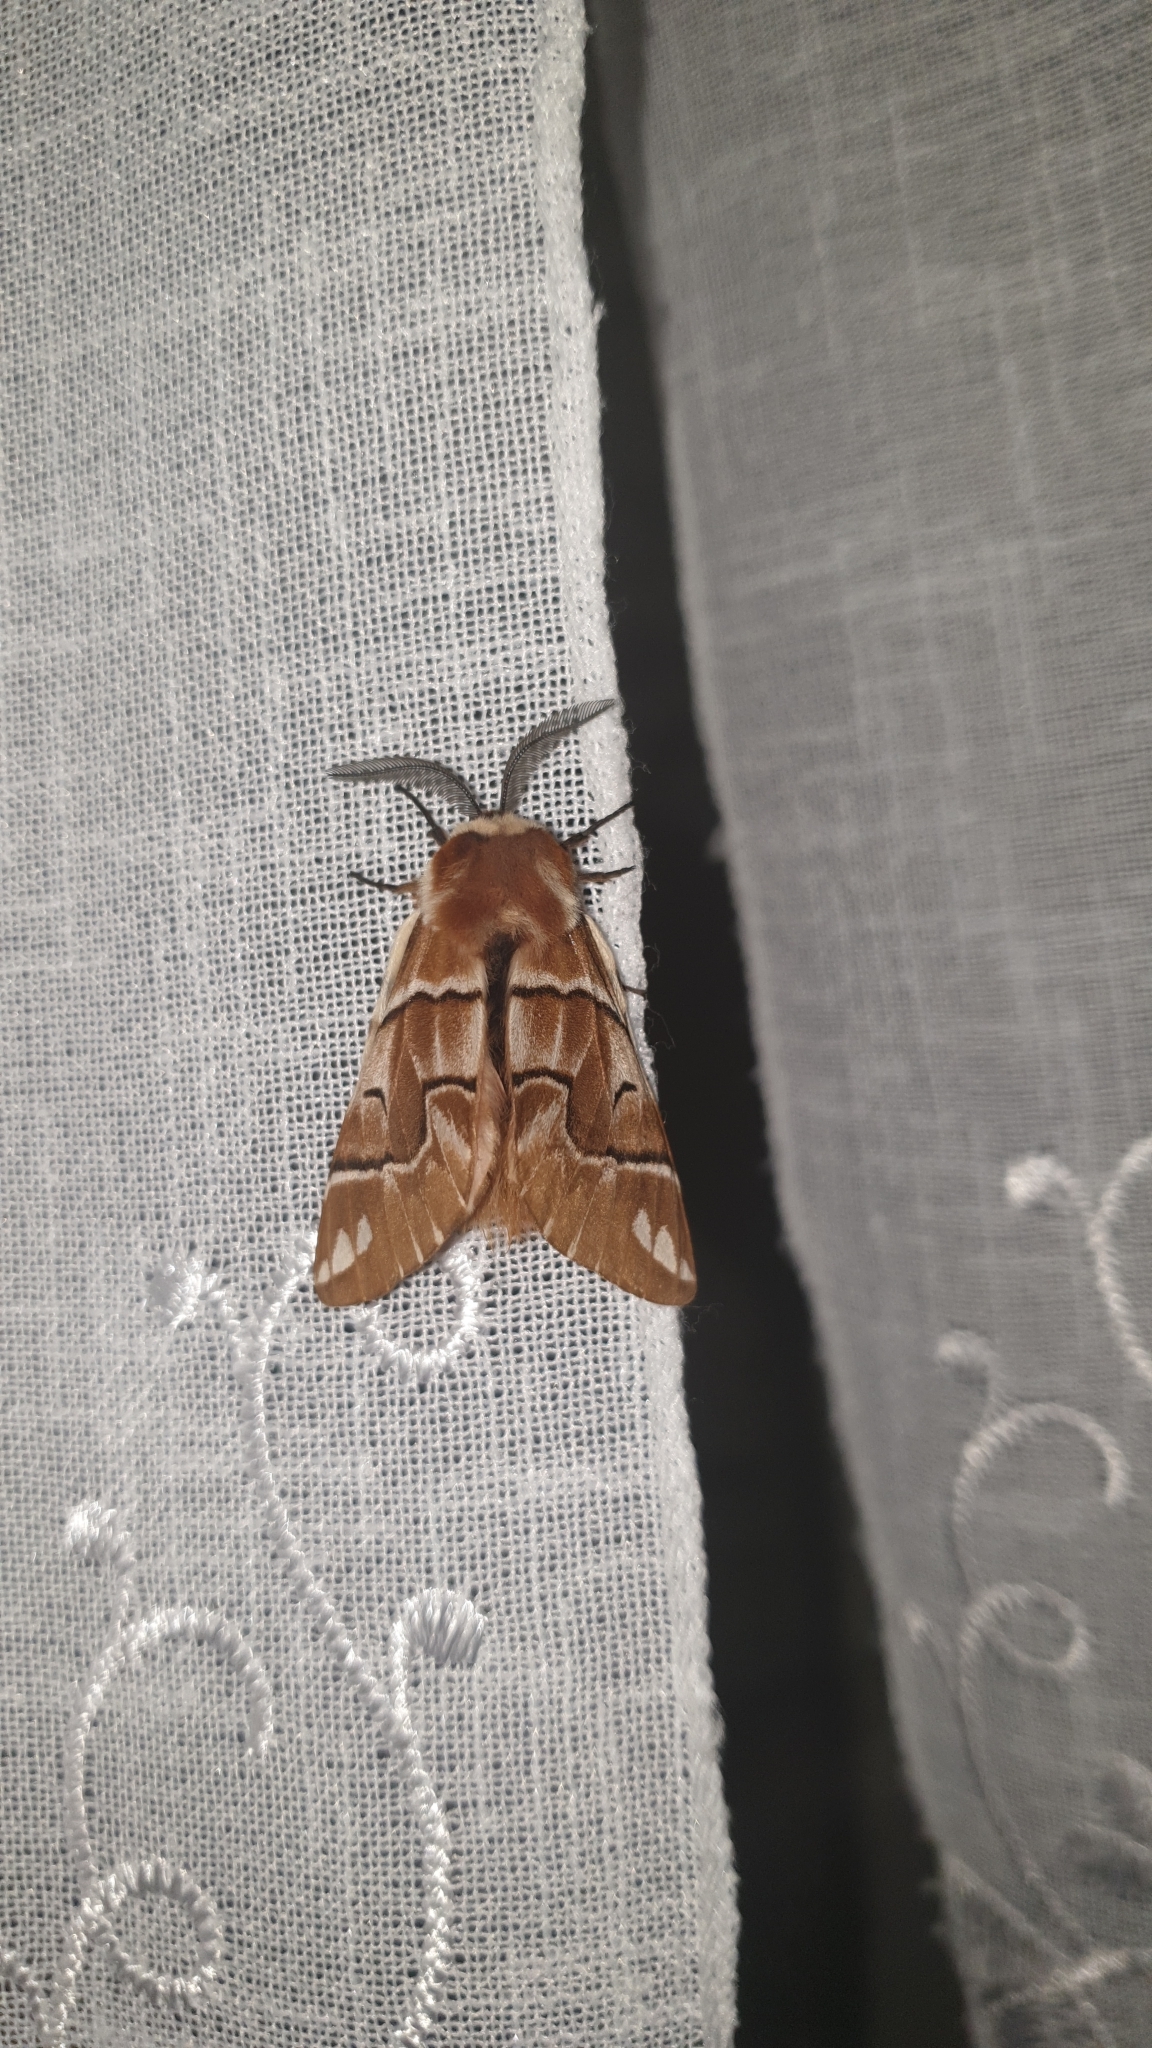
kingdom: Animalia
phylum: Arthropoda
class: Insecta
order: Lepidoptera
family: Endromidae
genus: Endromis
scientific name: Endromis versicolora
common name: Kentish glory
